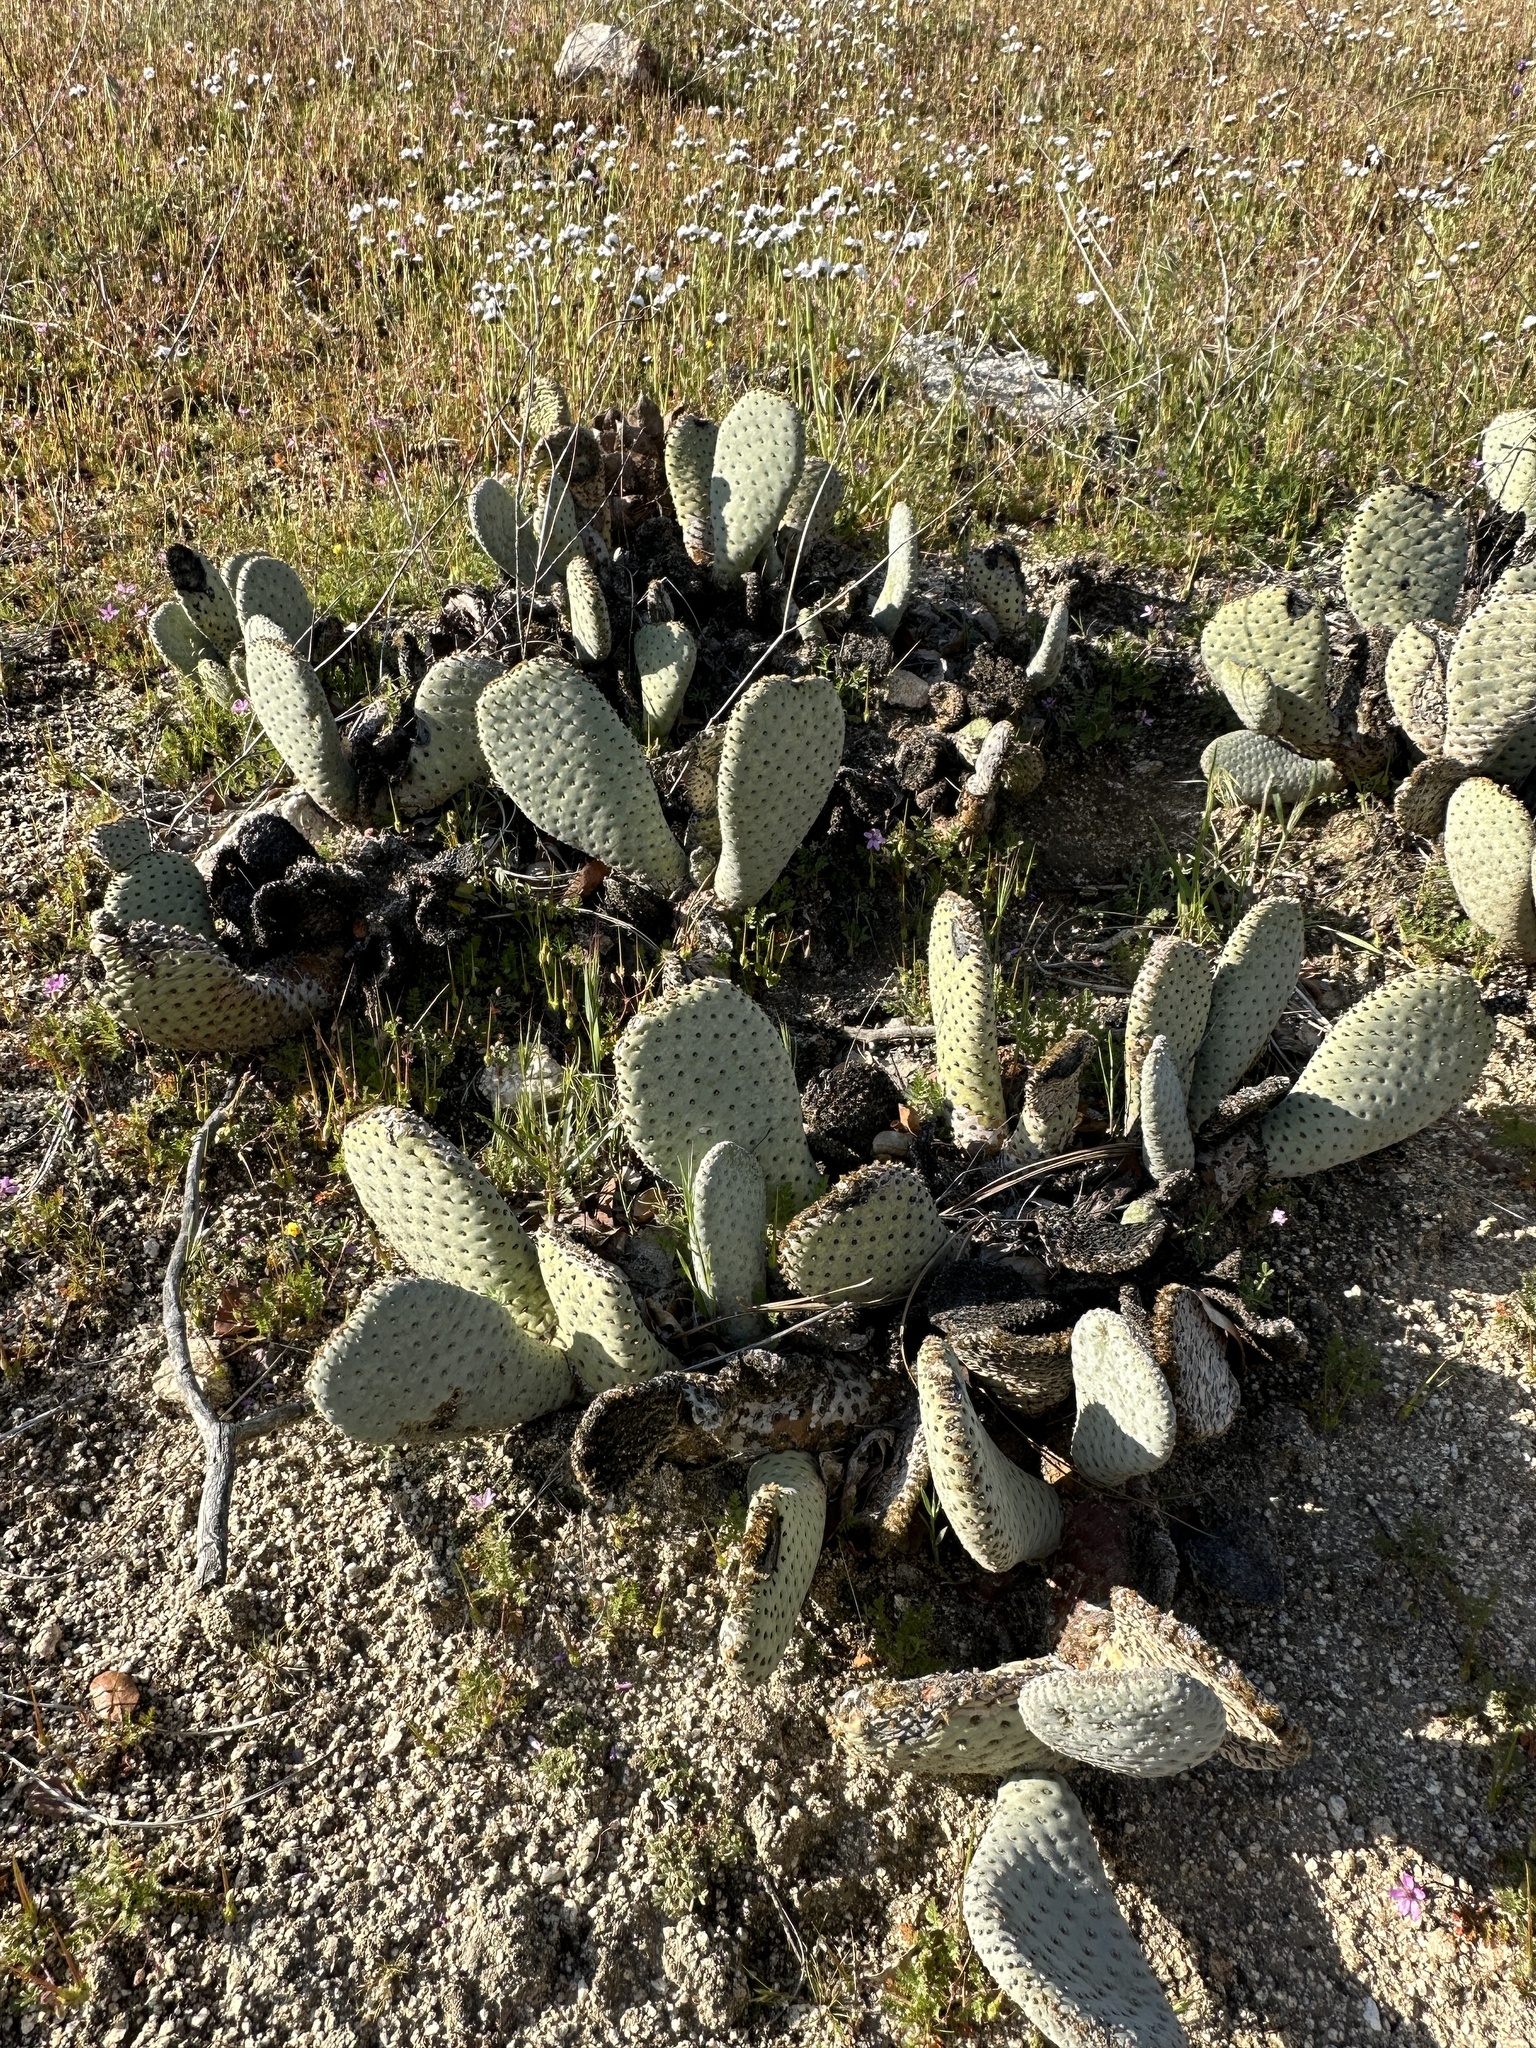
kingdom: Plantae
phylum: Tracheophyta
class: Magnoliopsida
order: Caryophyllales
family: Cactaceae
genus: Opuntia
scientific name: Opuntia basilaris
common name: Beavertail prickly-pear
